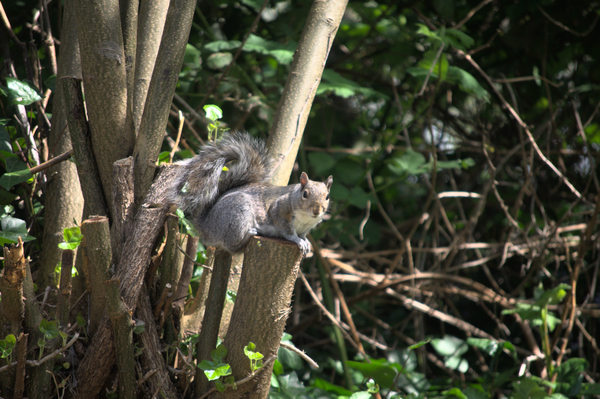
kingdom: Animalia
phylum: Chordata
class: Mammalia
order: Rodentia
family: Sciuridae
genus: Sciurus
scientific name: Sciurus carolinensis
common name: Eastern gray squirrel
